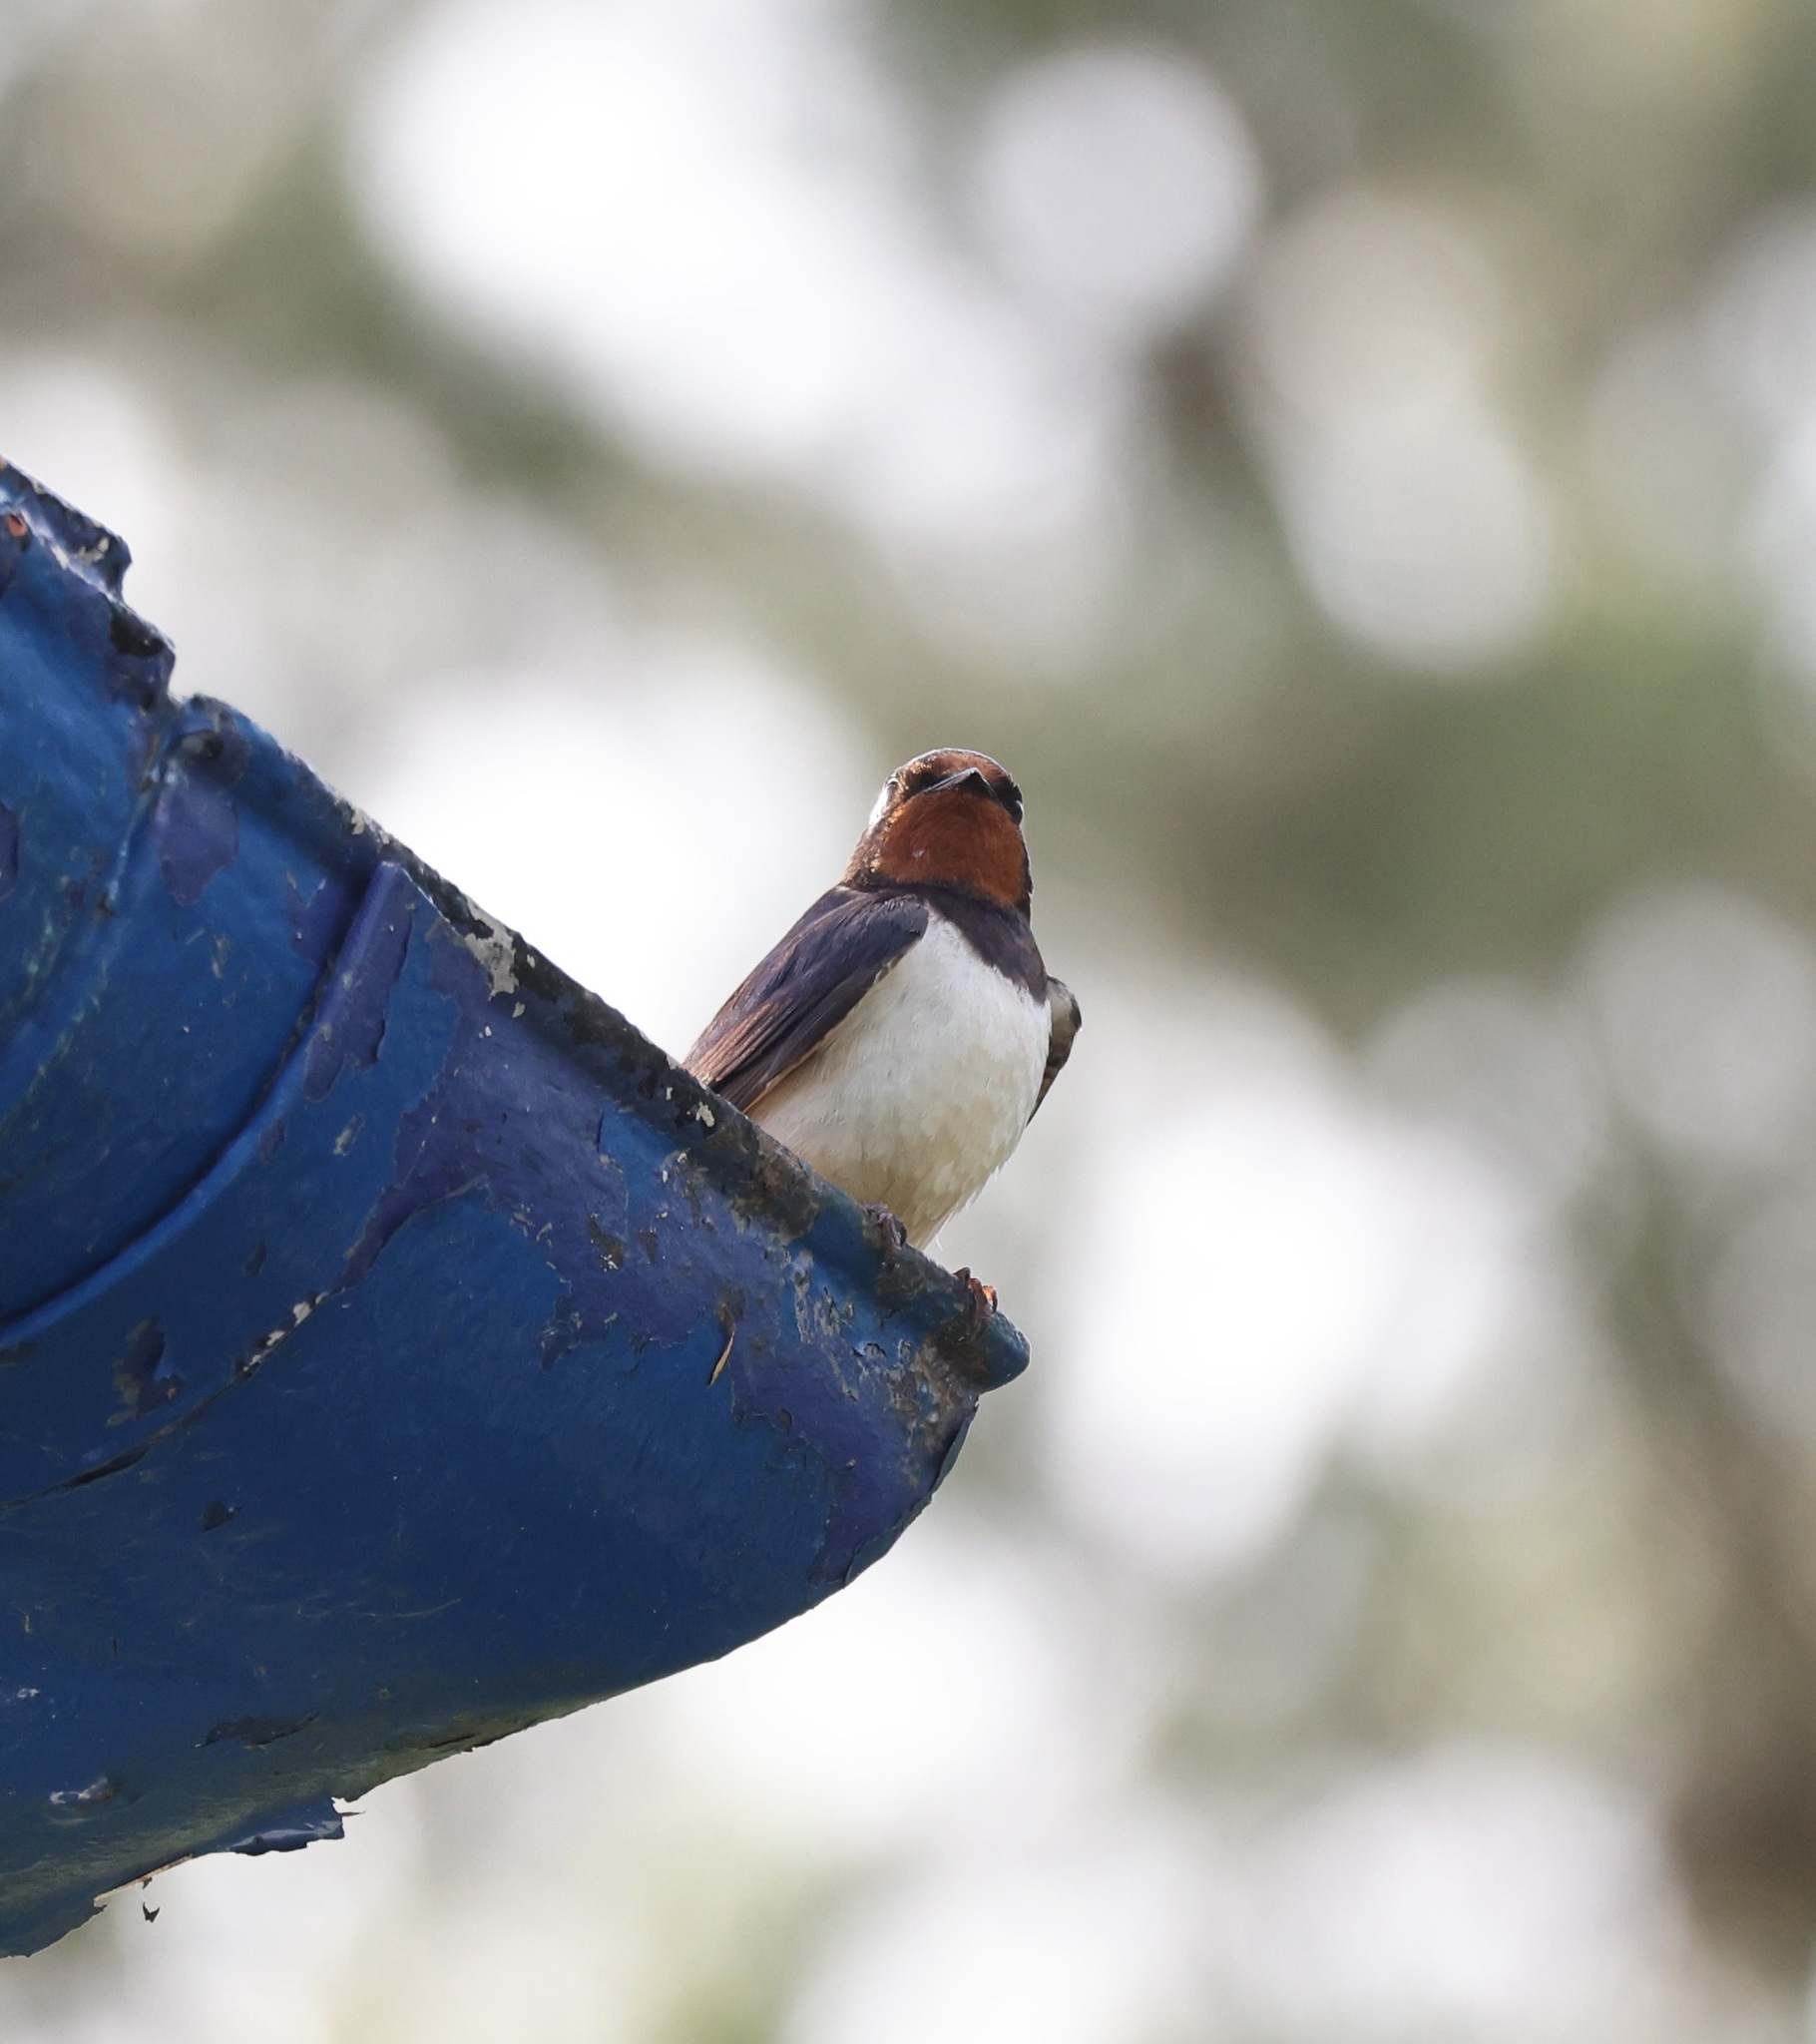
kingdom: Animalia
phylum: Chordata
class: Aves
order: Passeriformes
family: Hirundinidae
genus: Hirundo
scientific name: Hirundo rustica
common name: Barn swallow
